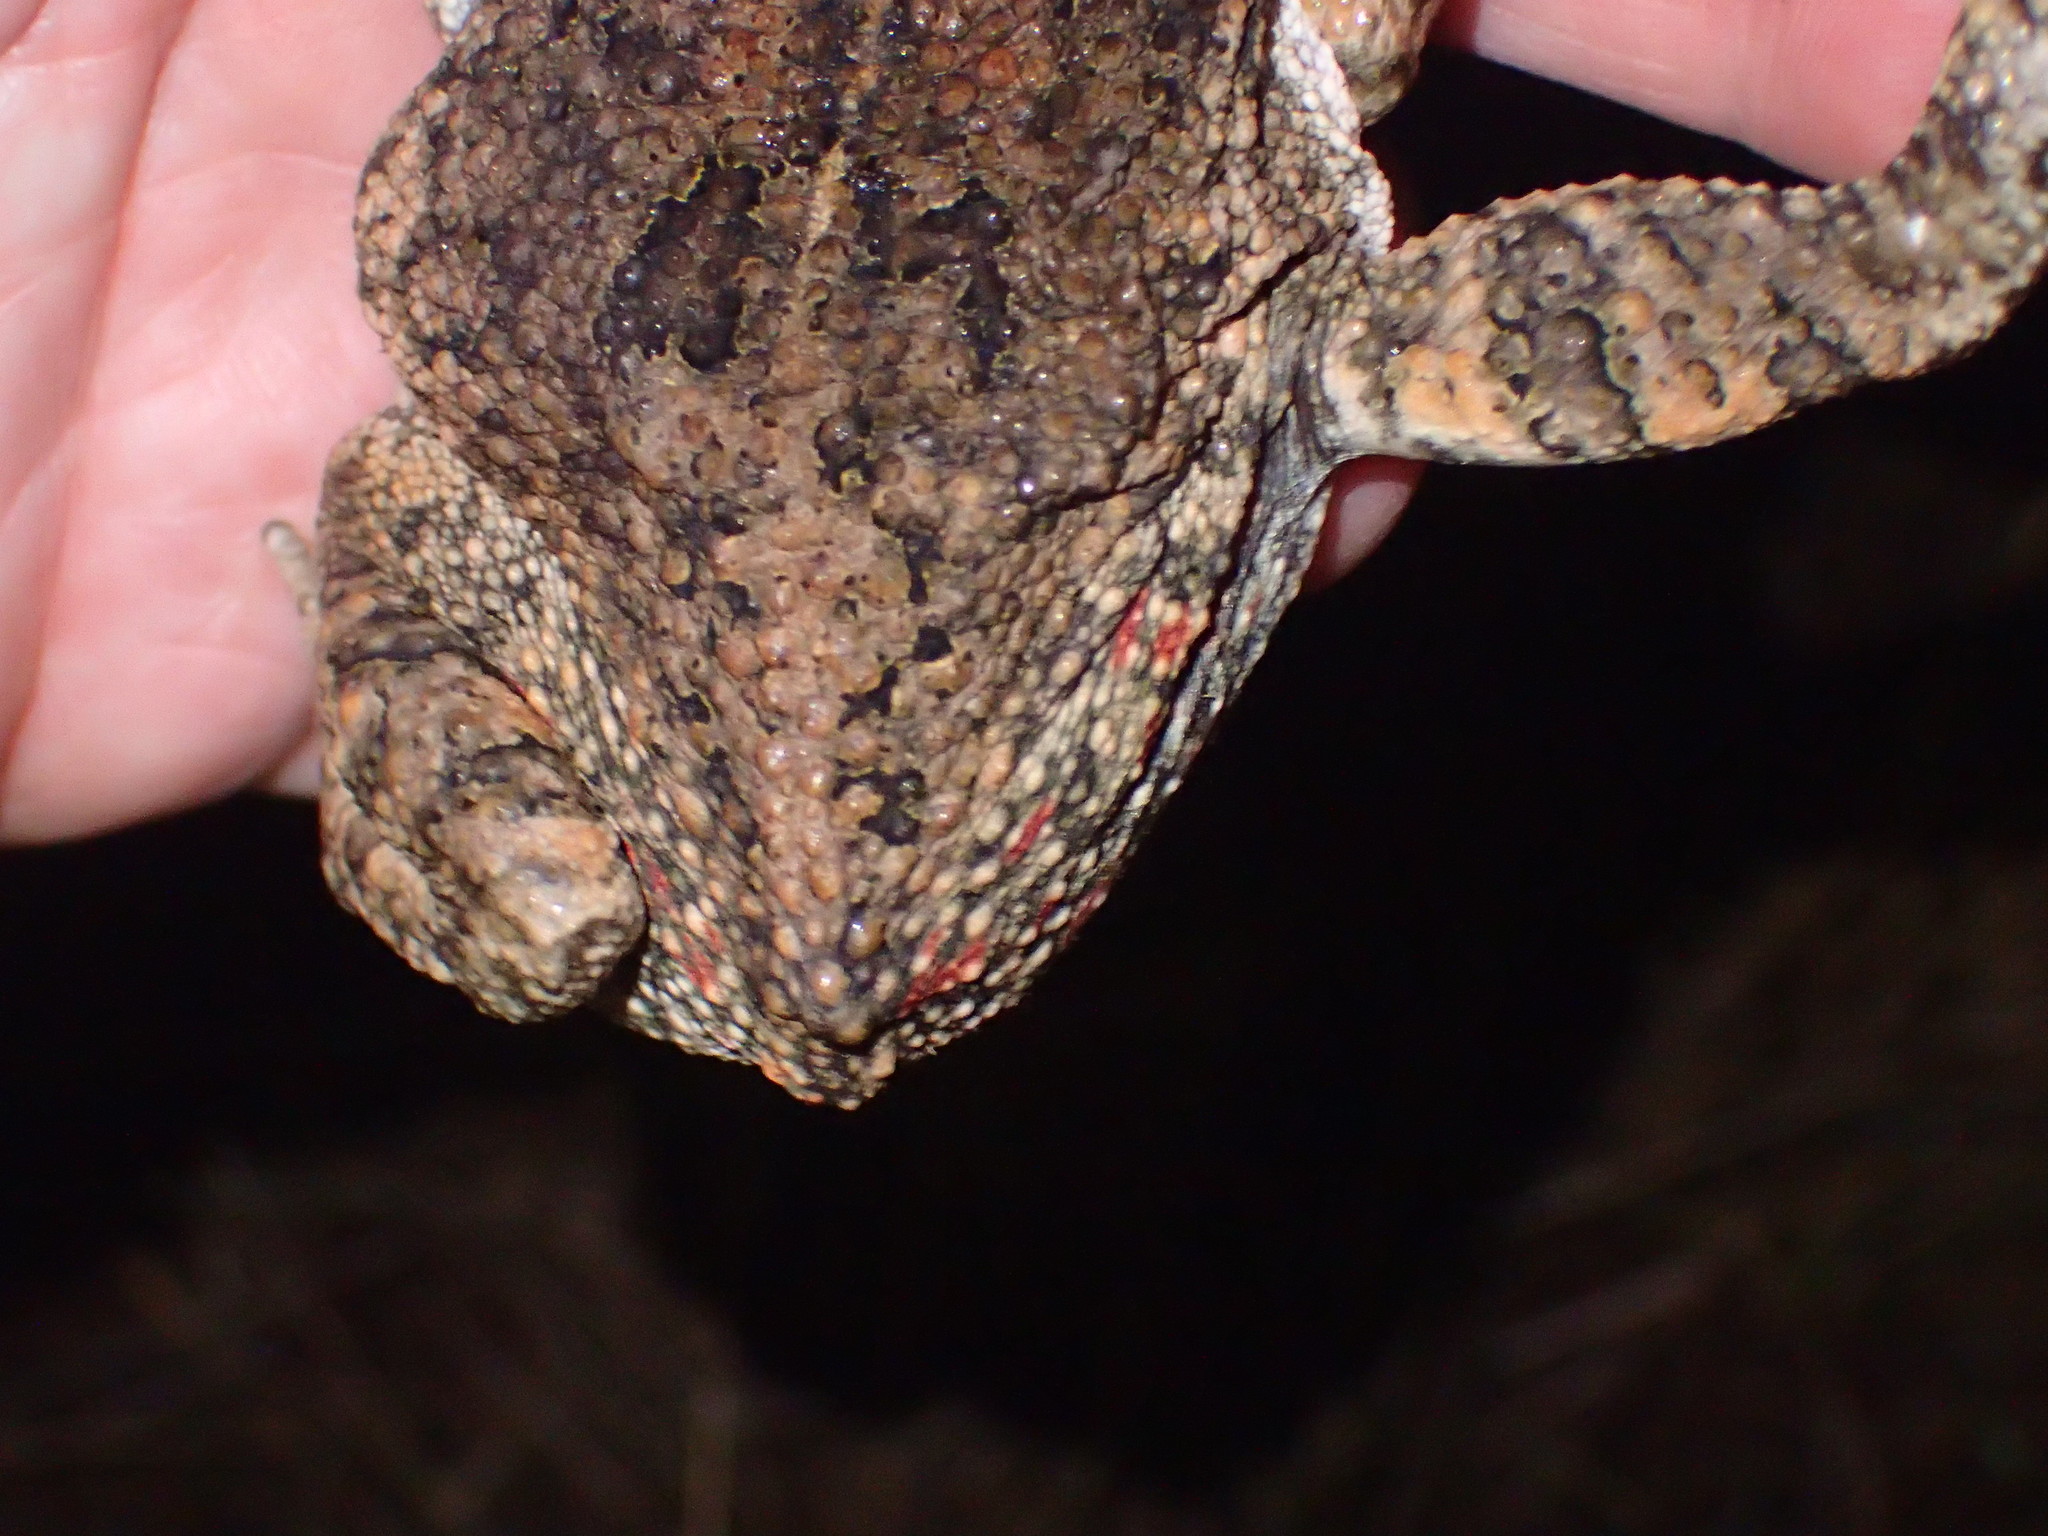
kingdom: Animalia
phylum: Chordata
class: Amphibia
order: Anura
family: Bufonidae
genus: Sclerophrys
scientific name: Sclerophrys gutturalis
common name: African common toad
